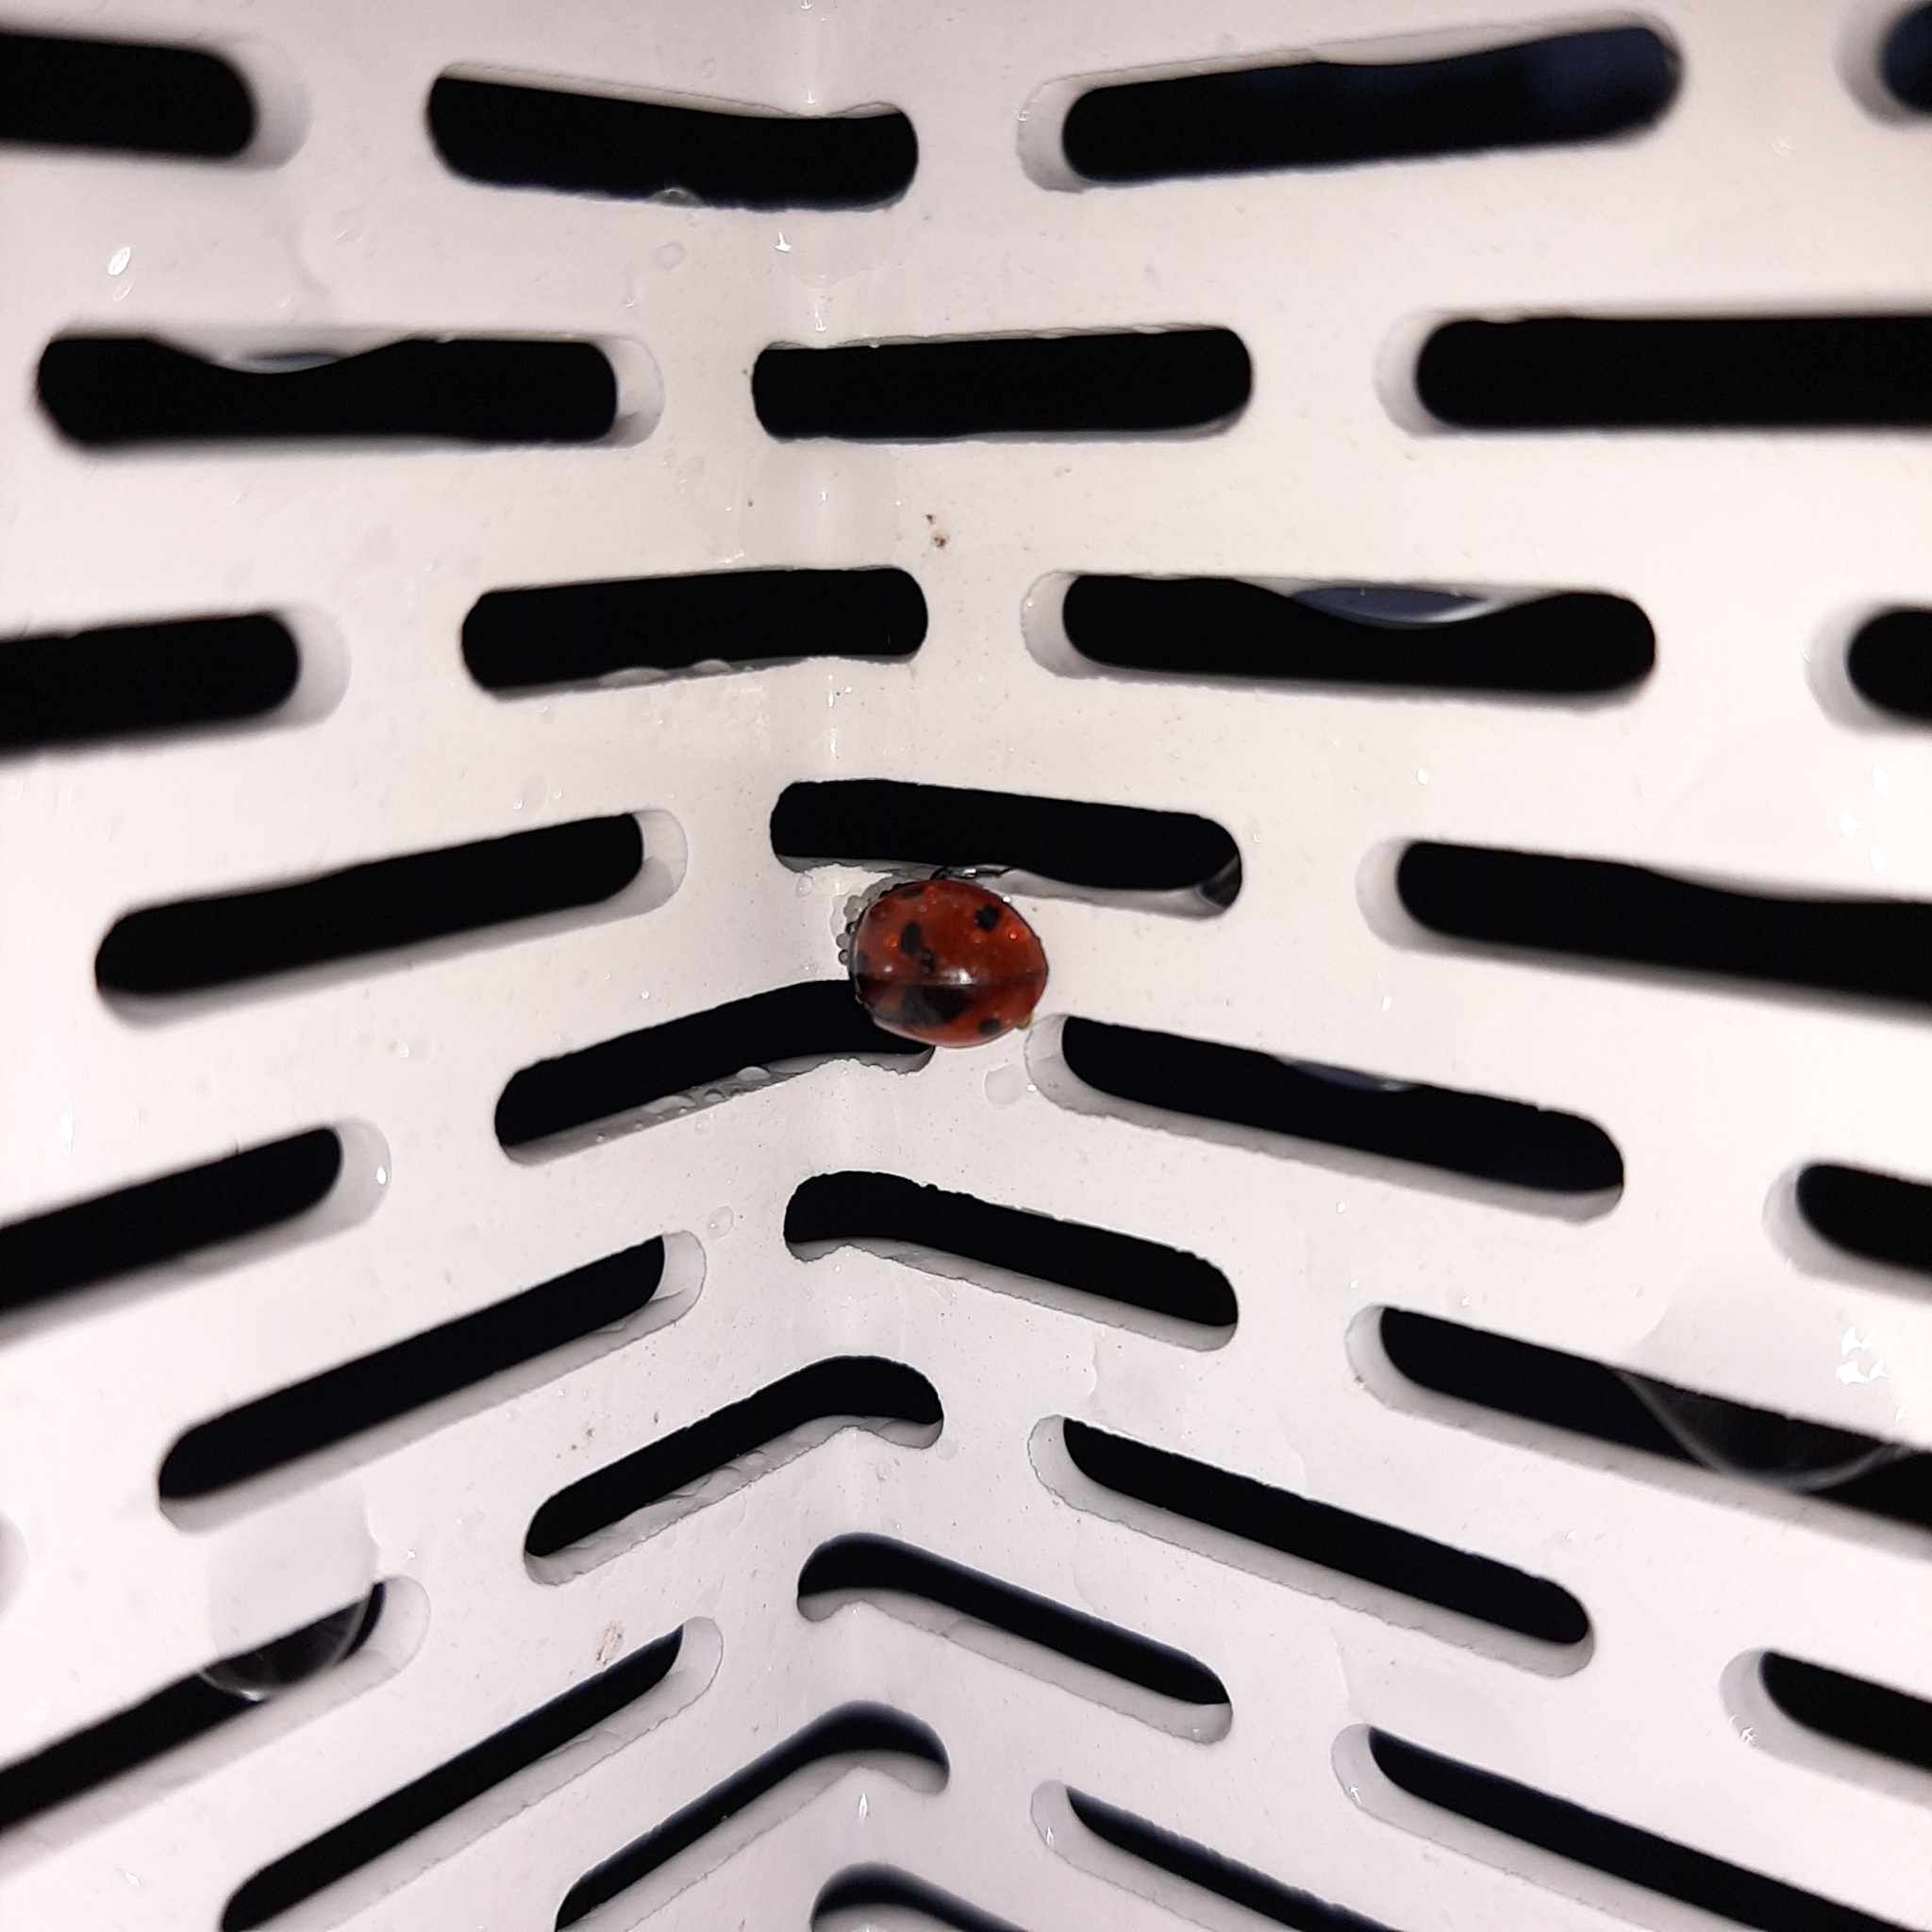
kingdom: Animalia
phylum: Arthropoda
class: Insecta
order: Coleoptera
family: Coccinellidae
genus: Coccinella
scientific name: Coccinella septempunctata
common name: Sevenspotted lady beetle
